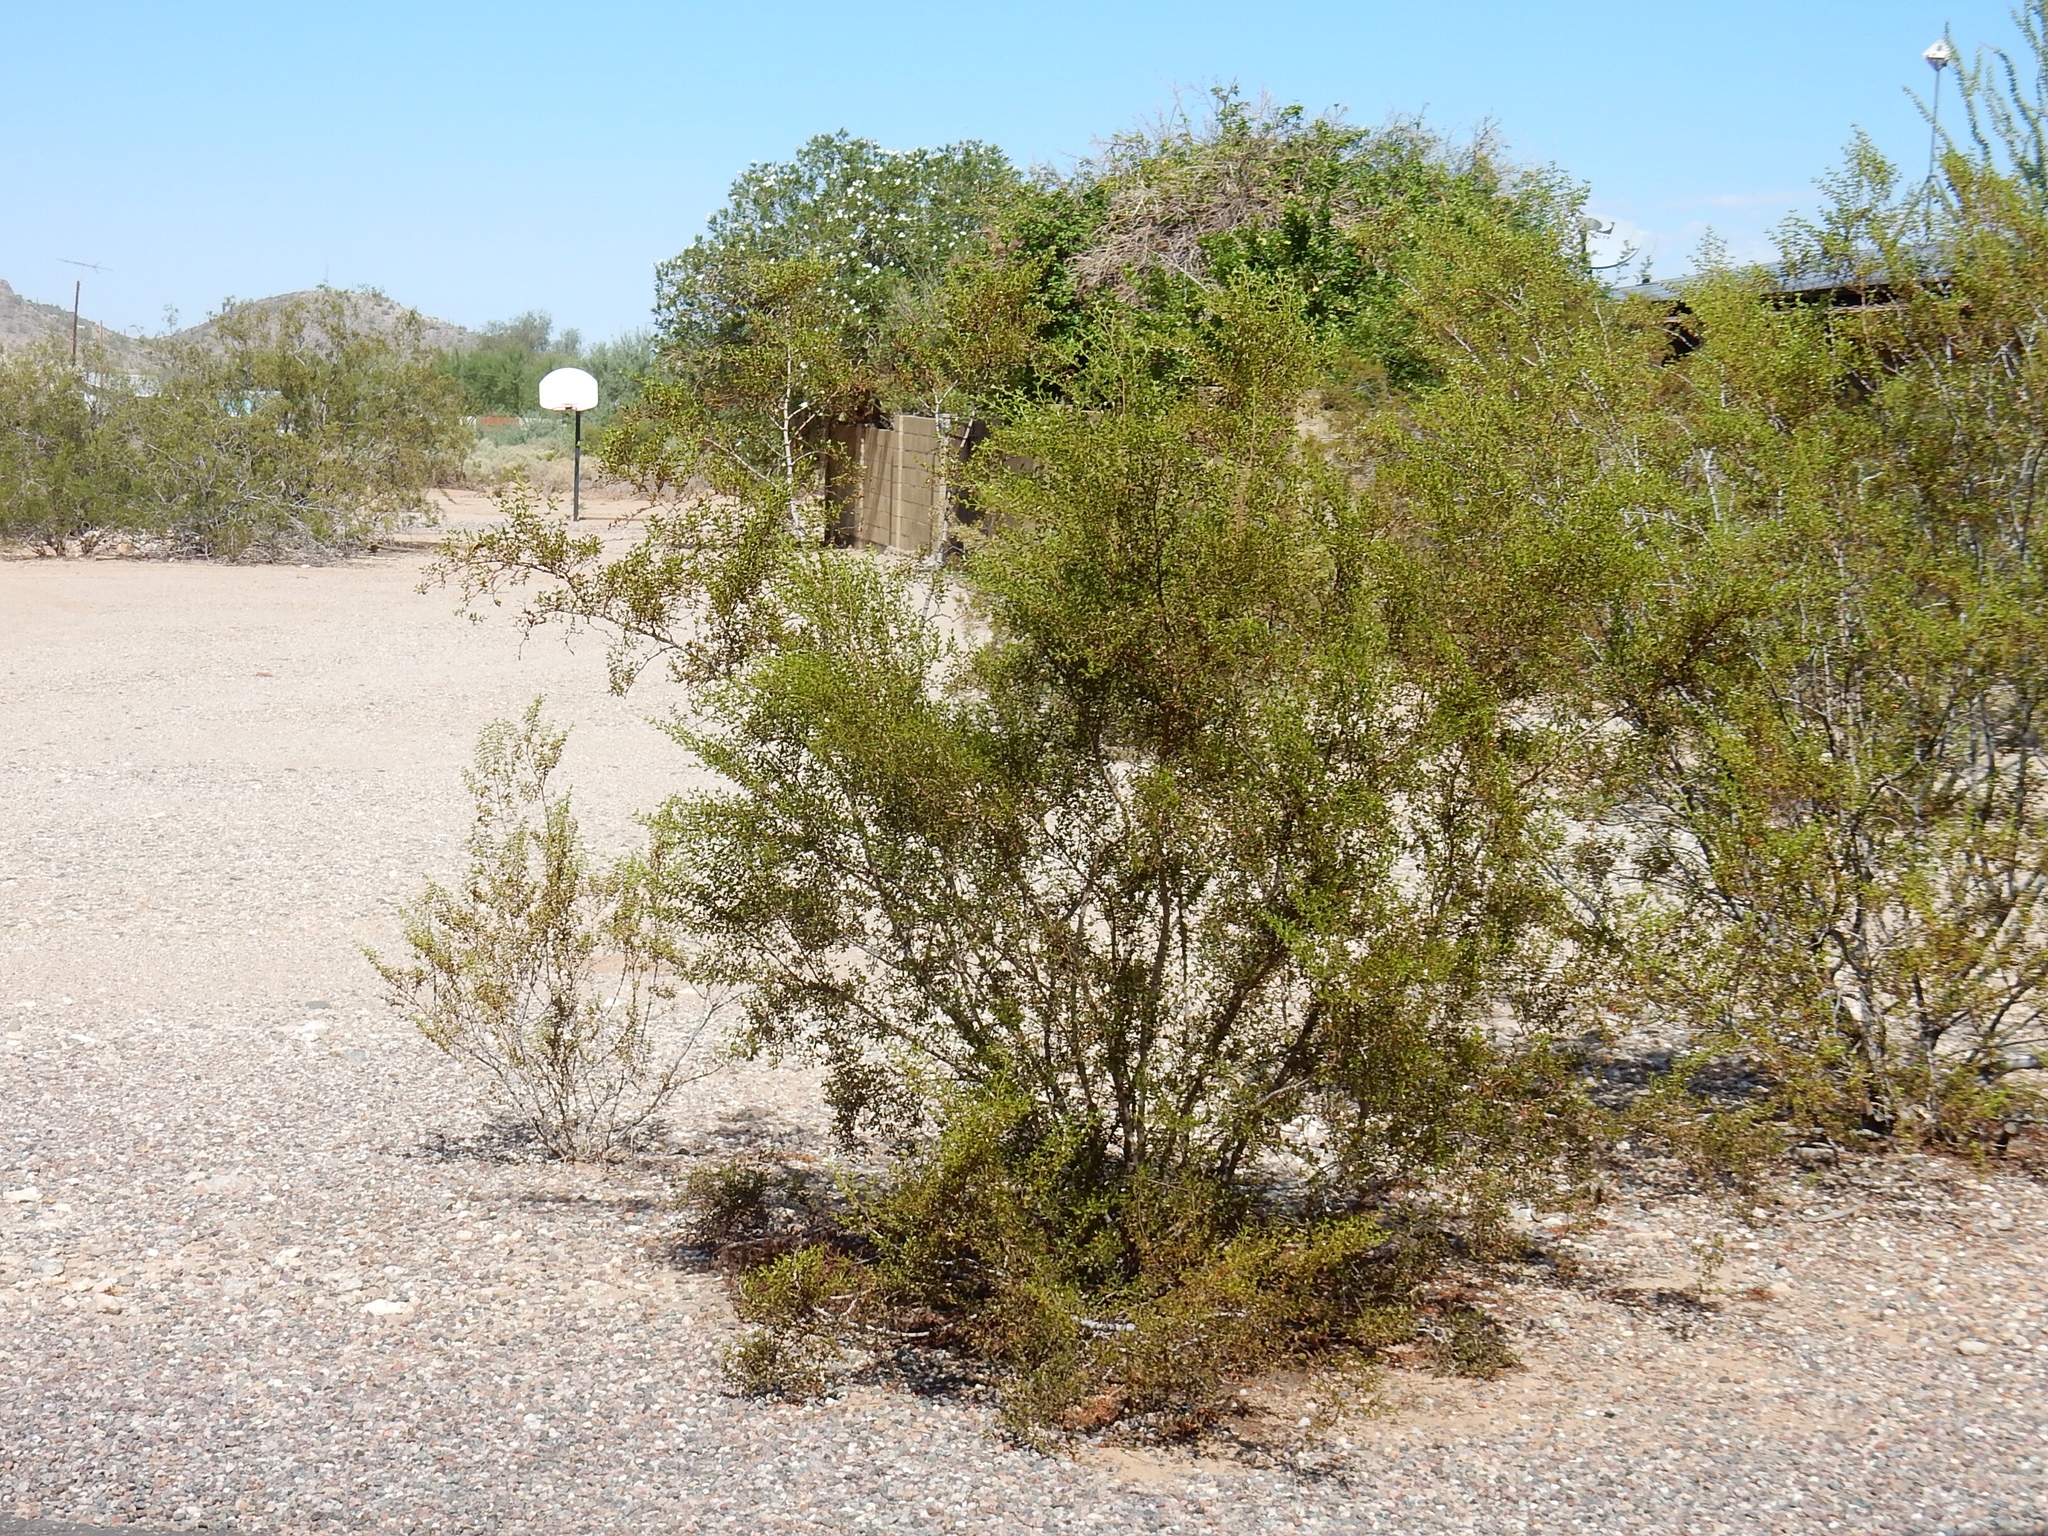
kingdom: Plantae
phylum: Tracheophyta
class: Magnoliopsida
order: Zygophyllales
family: Zygophyllaceae
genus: Larrea
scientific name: Larrea tridentata
